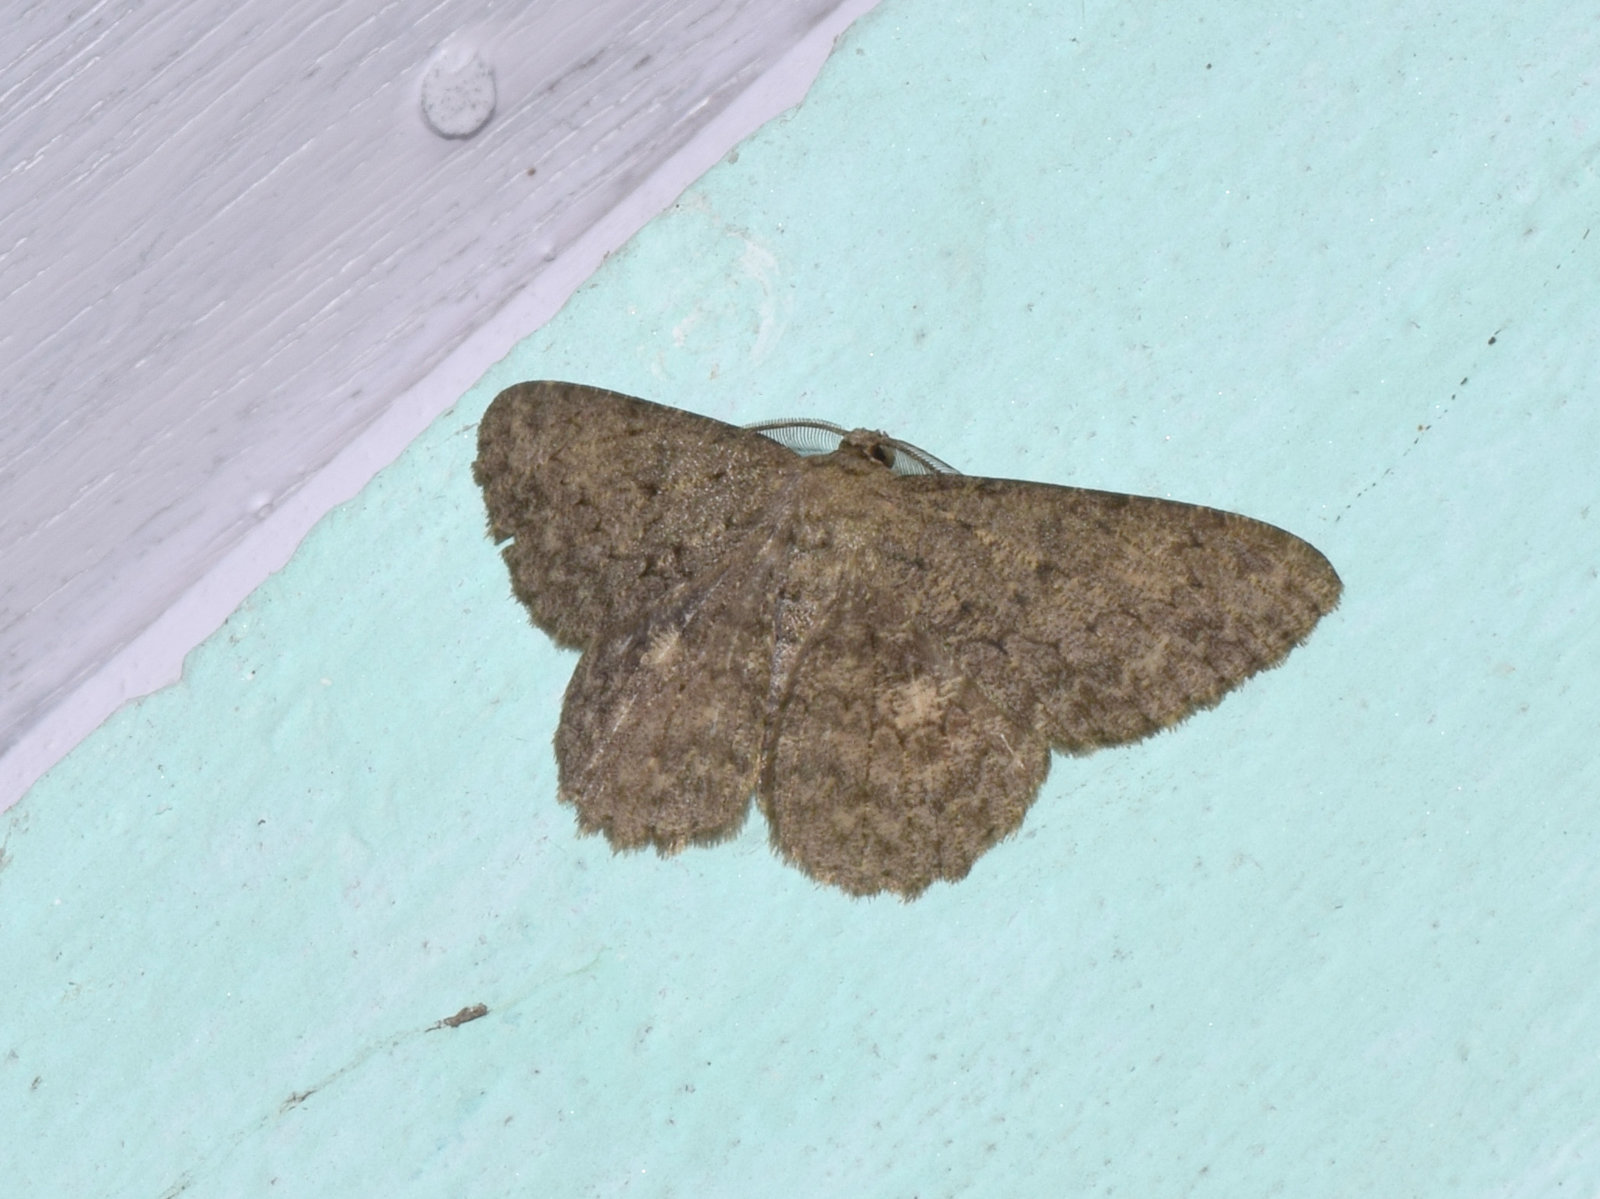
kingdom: Animalia
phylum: Arthropoda
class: Insecta
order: Lepidoptera
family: Geometridae
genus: Hypomecis
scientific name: Hypomecis lioptilaria
